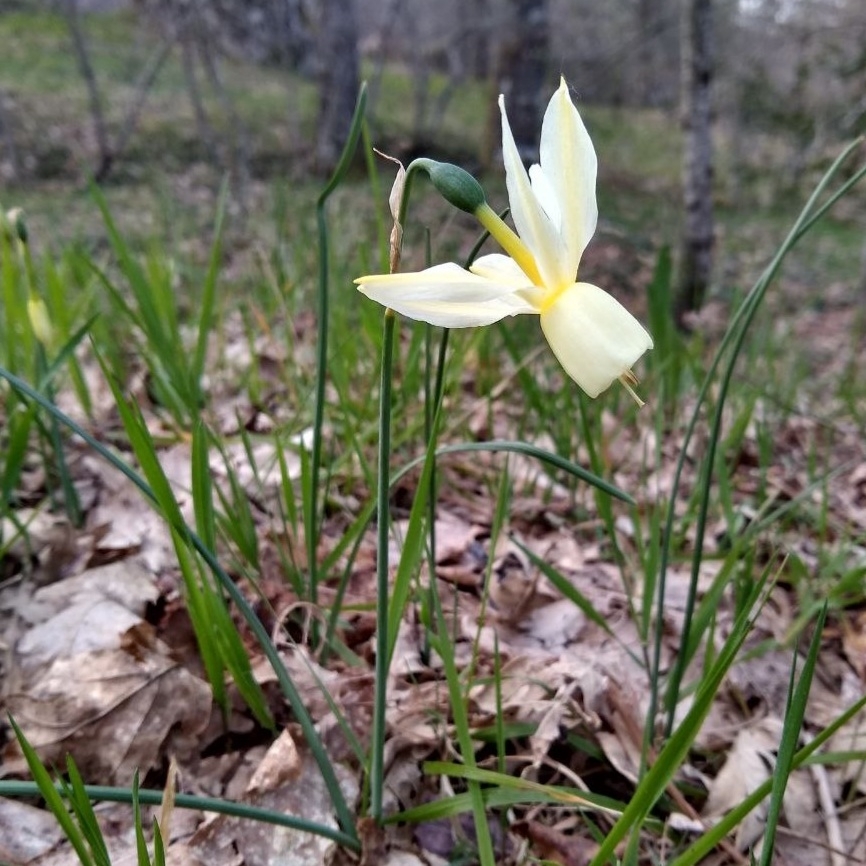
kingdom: Plantae
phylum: Tracheophyta
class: Liliopsida
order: Asparagales
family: Amaryllidaceae
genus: Narcissus
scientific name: Narcissus triandrus
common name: Angel's-tears
